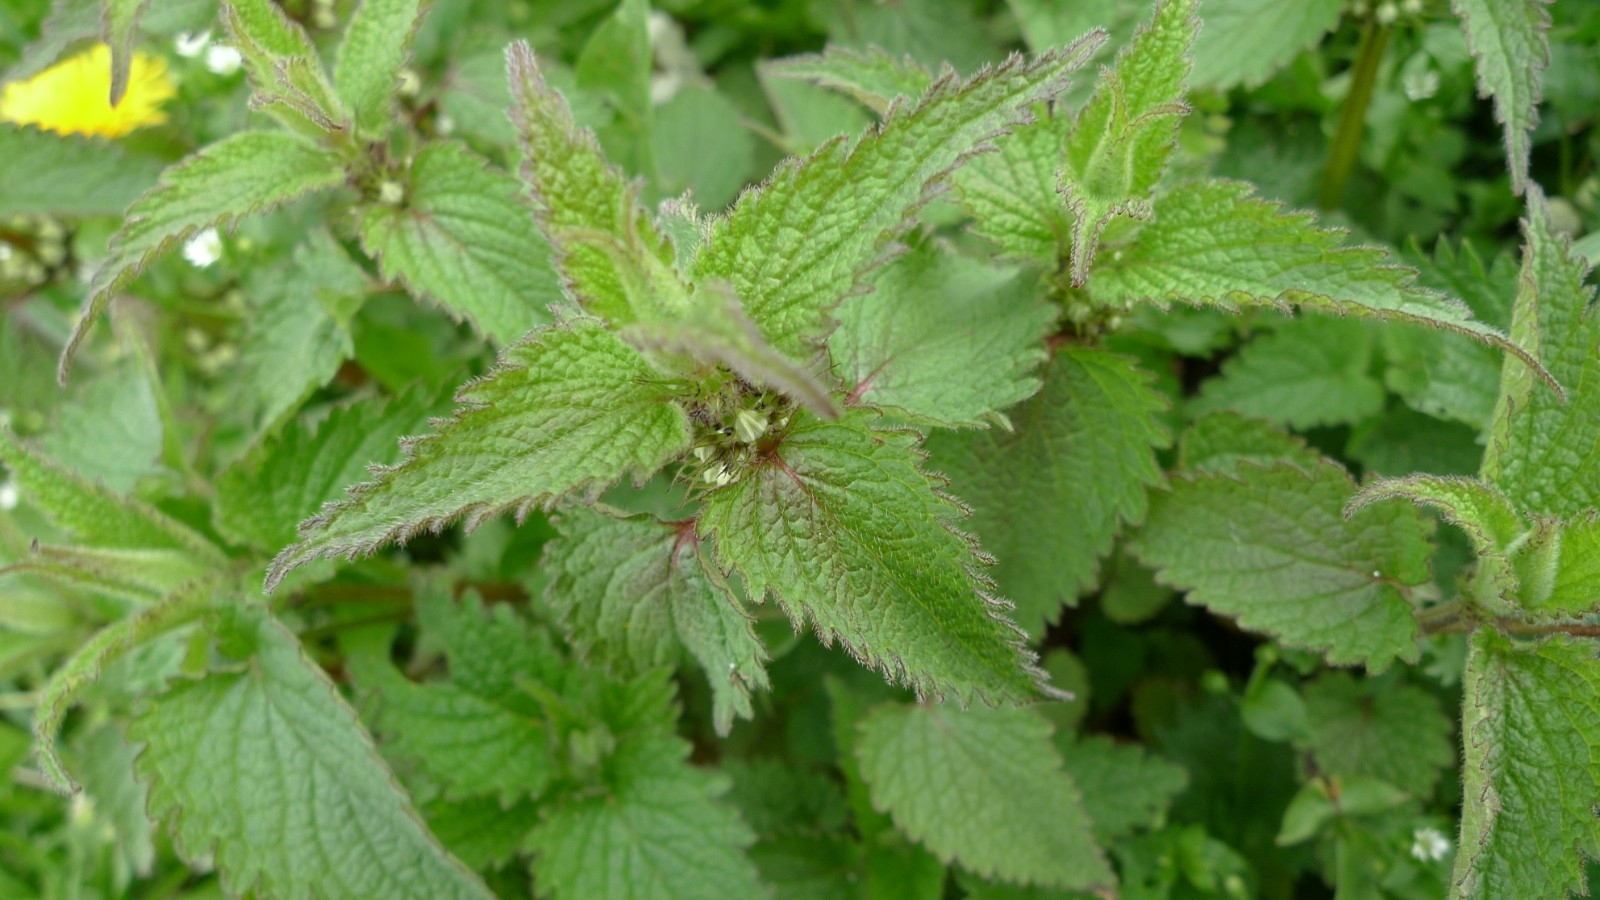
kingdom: Plantae
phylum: Tracheophyta
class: Magnoliopsida
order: Lamiales
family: Lamiaceae
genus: Lamium
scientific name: Lamium album
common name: White dead-nettle
